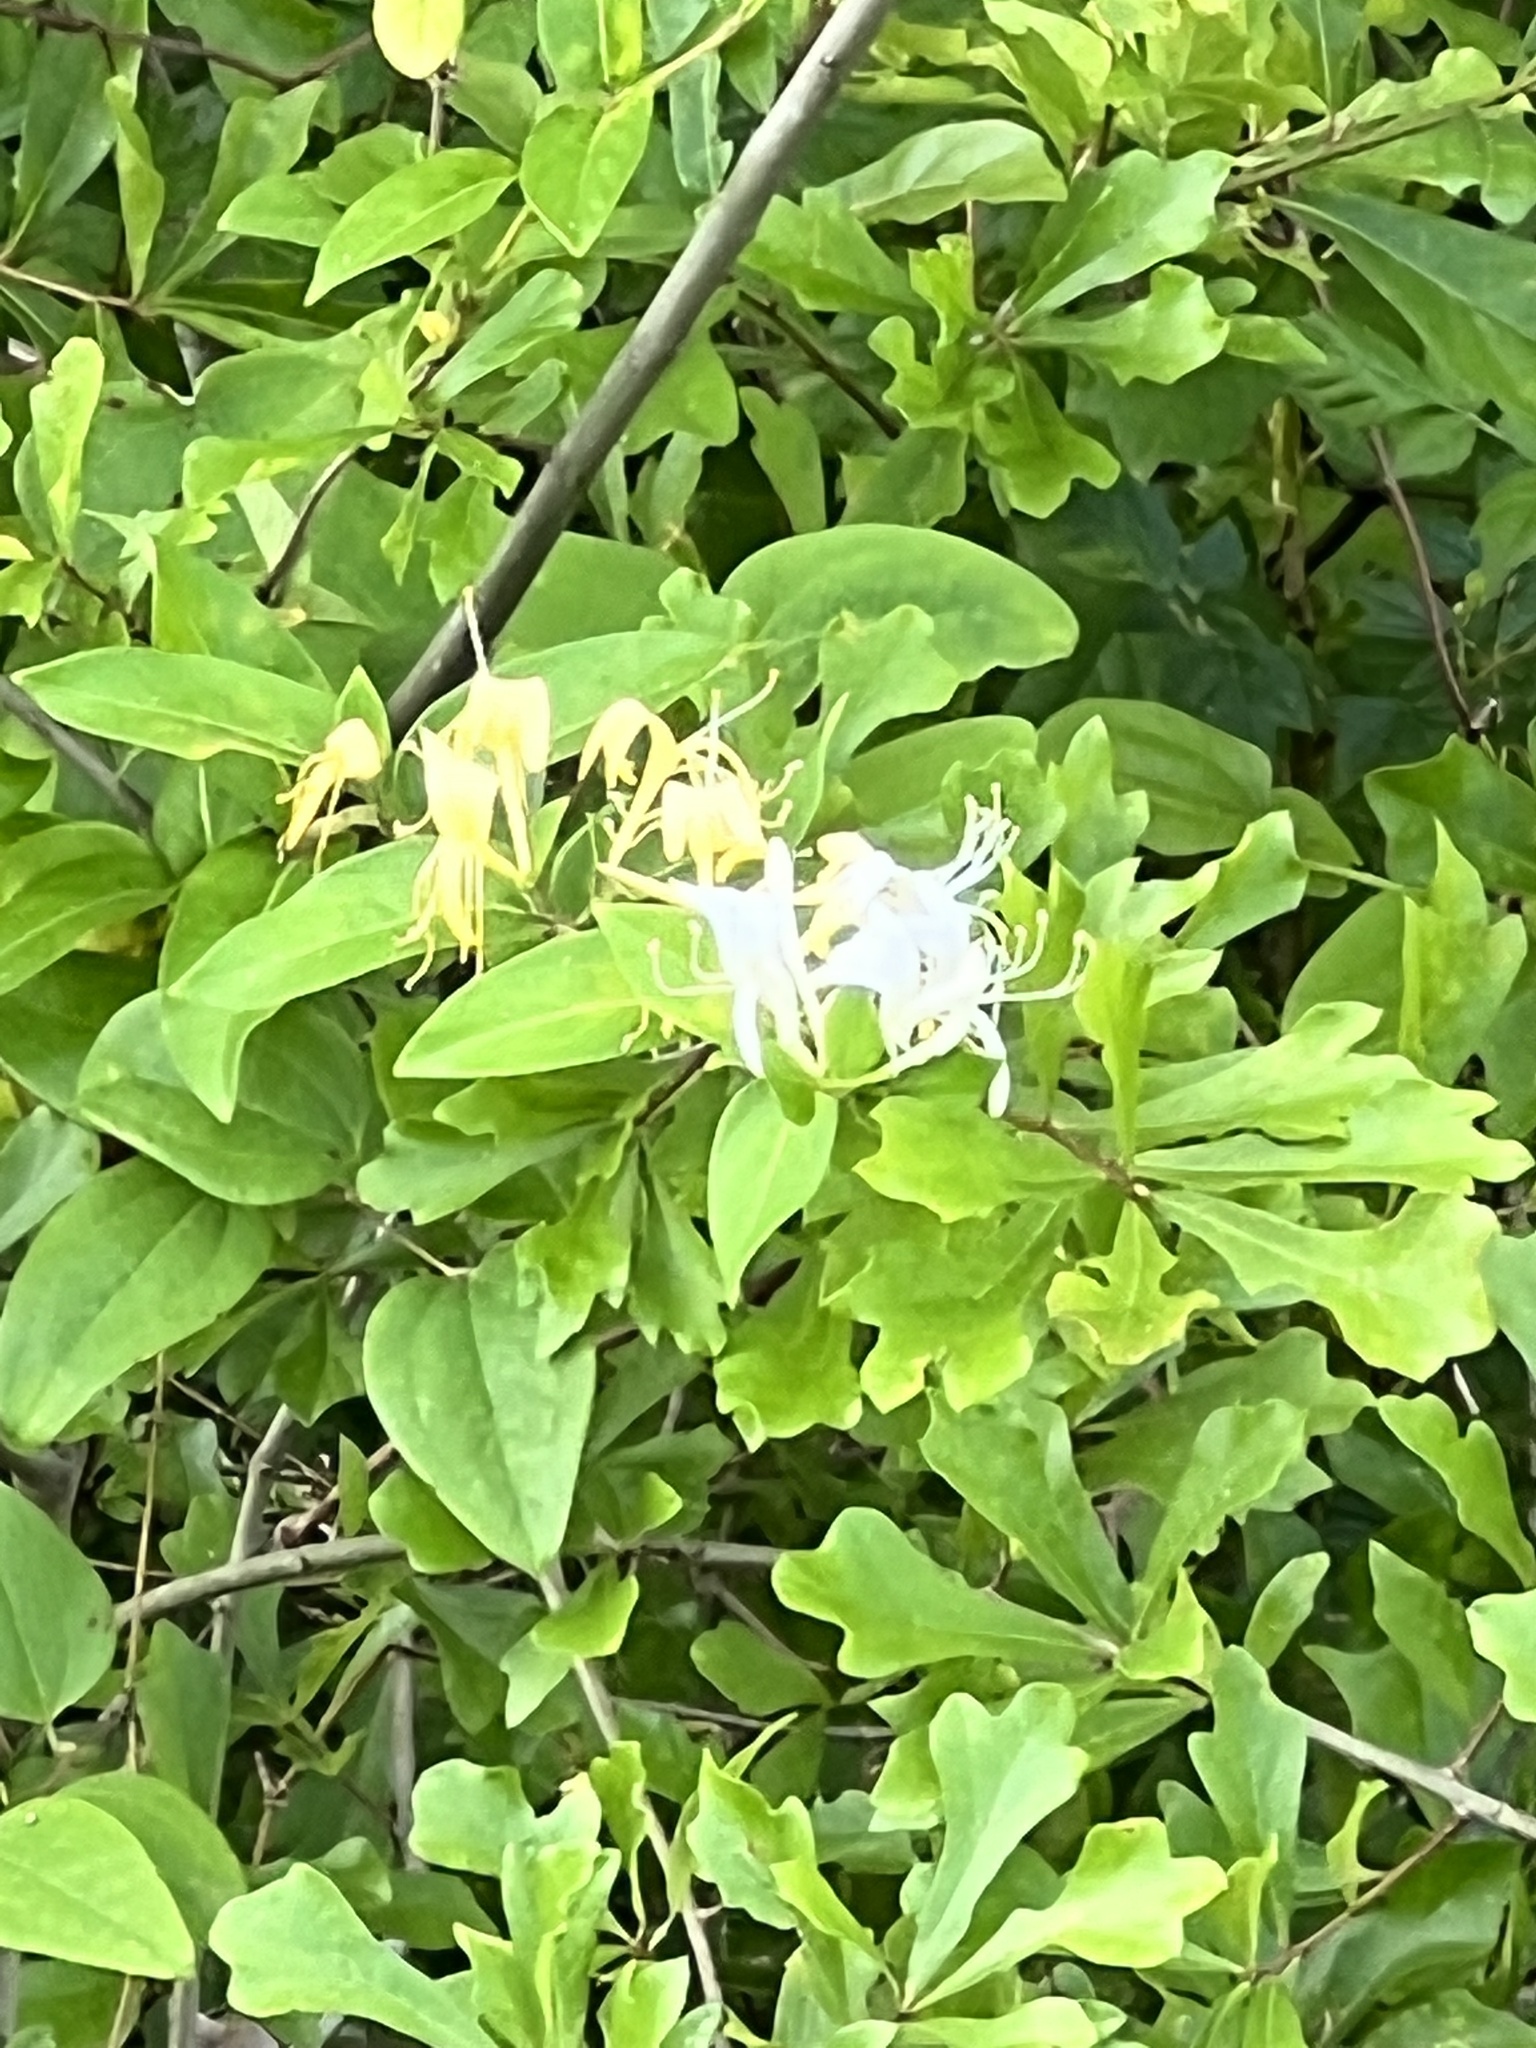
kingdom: Plantae
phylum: Tracheophyta
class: Magnoliopsida
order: Dipsacales
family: Caprifoliaceae
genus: Lonicera
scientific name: Lonicera japonica
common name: Japanese honeysuckle
